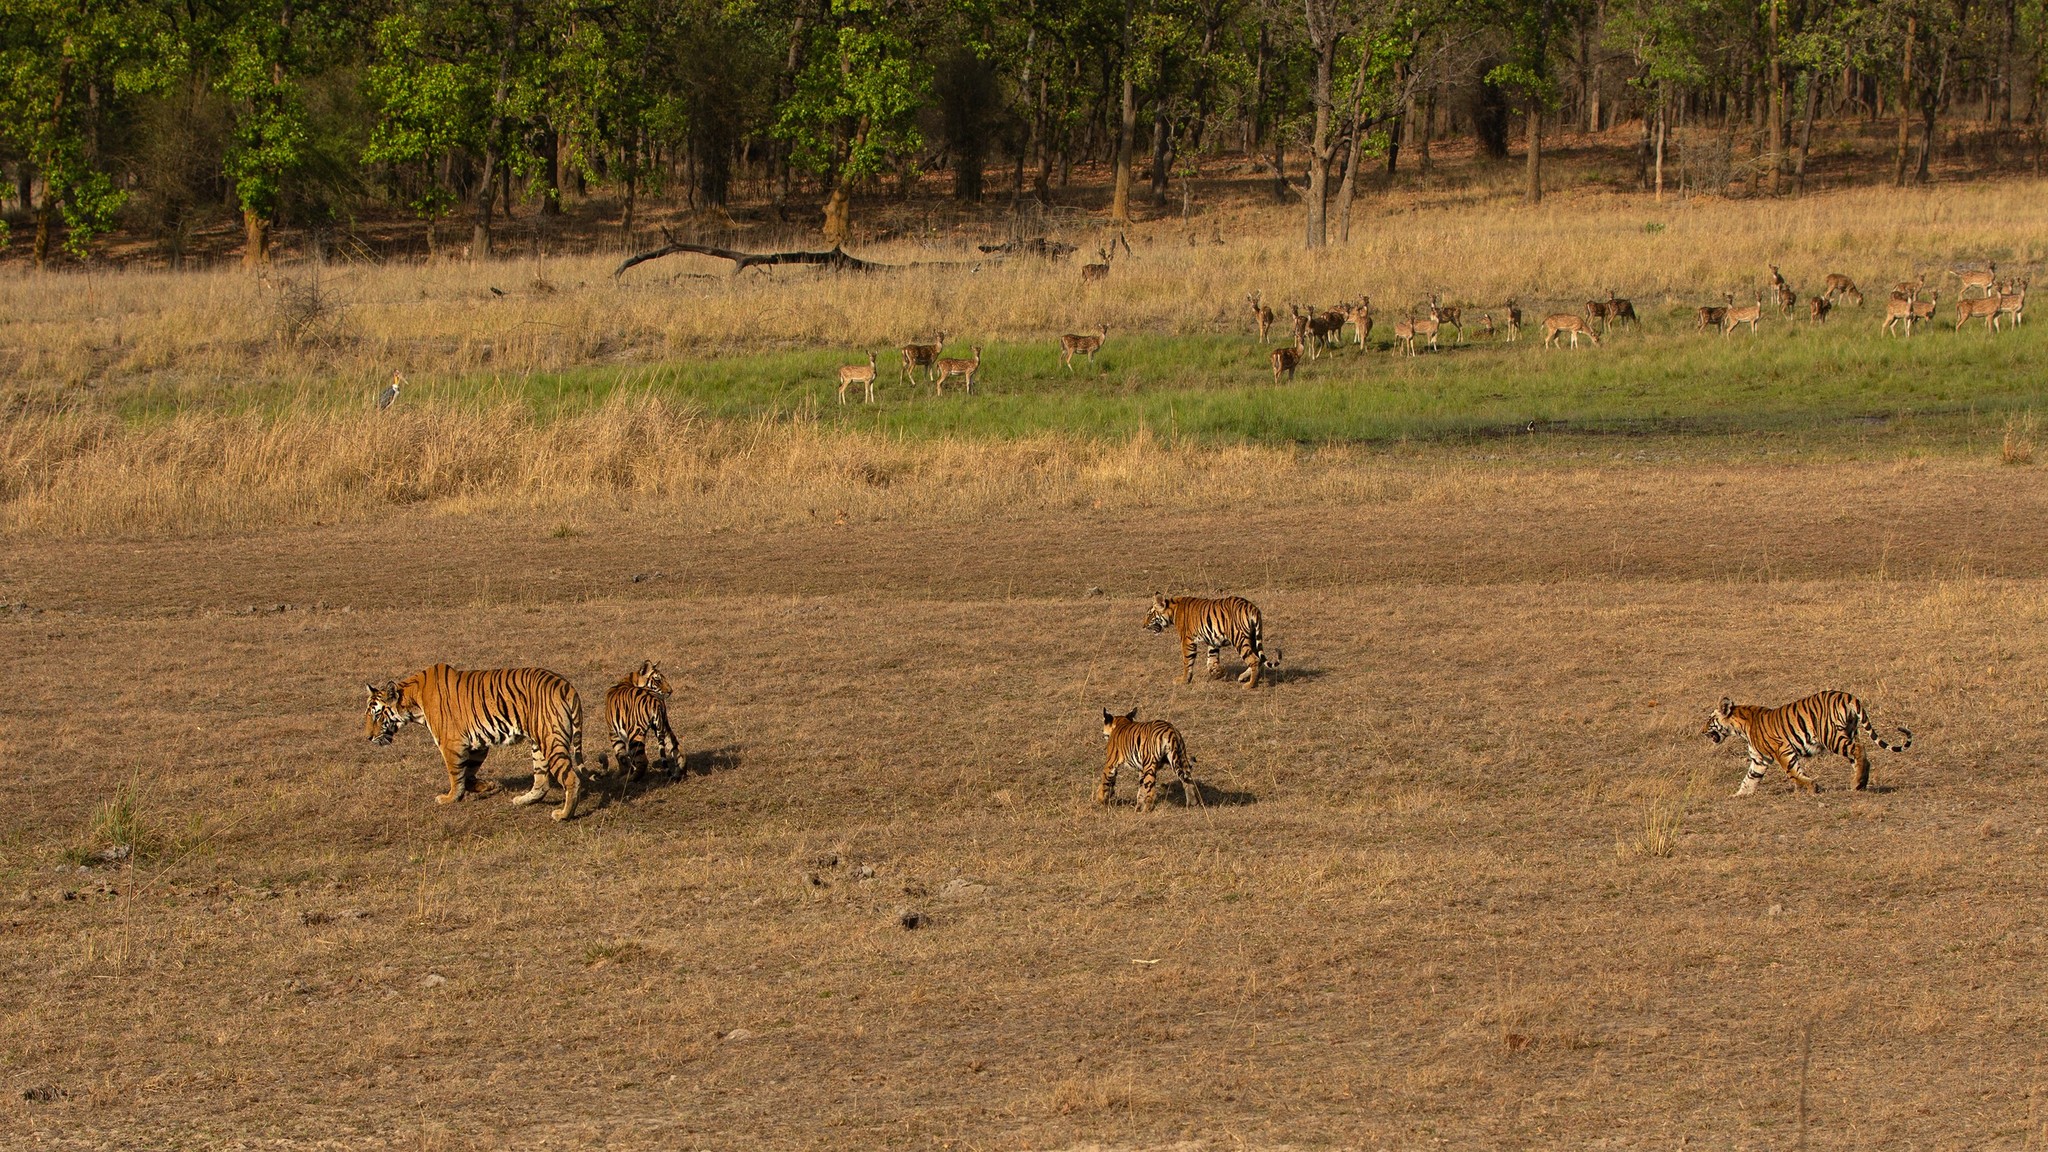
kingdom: Animalia
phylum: Chordata
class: Mammalia
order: Carnivora
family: Felidae
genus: Panthera
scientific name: Panthera tigris
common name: Tiger
